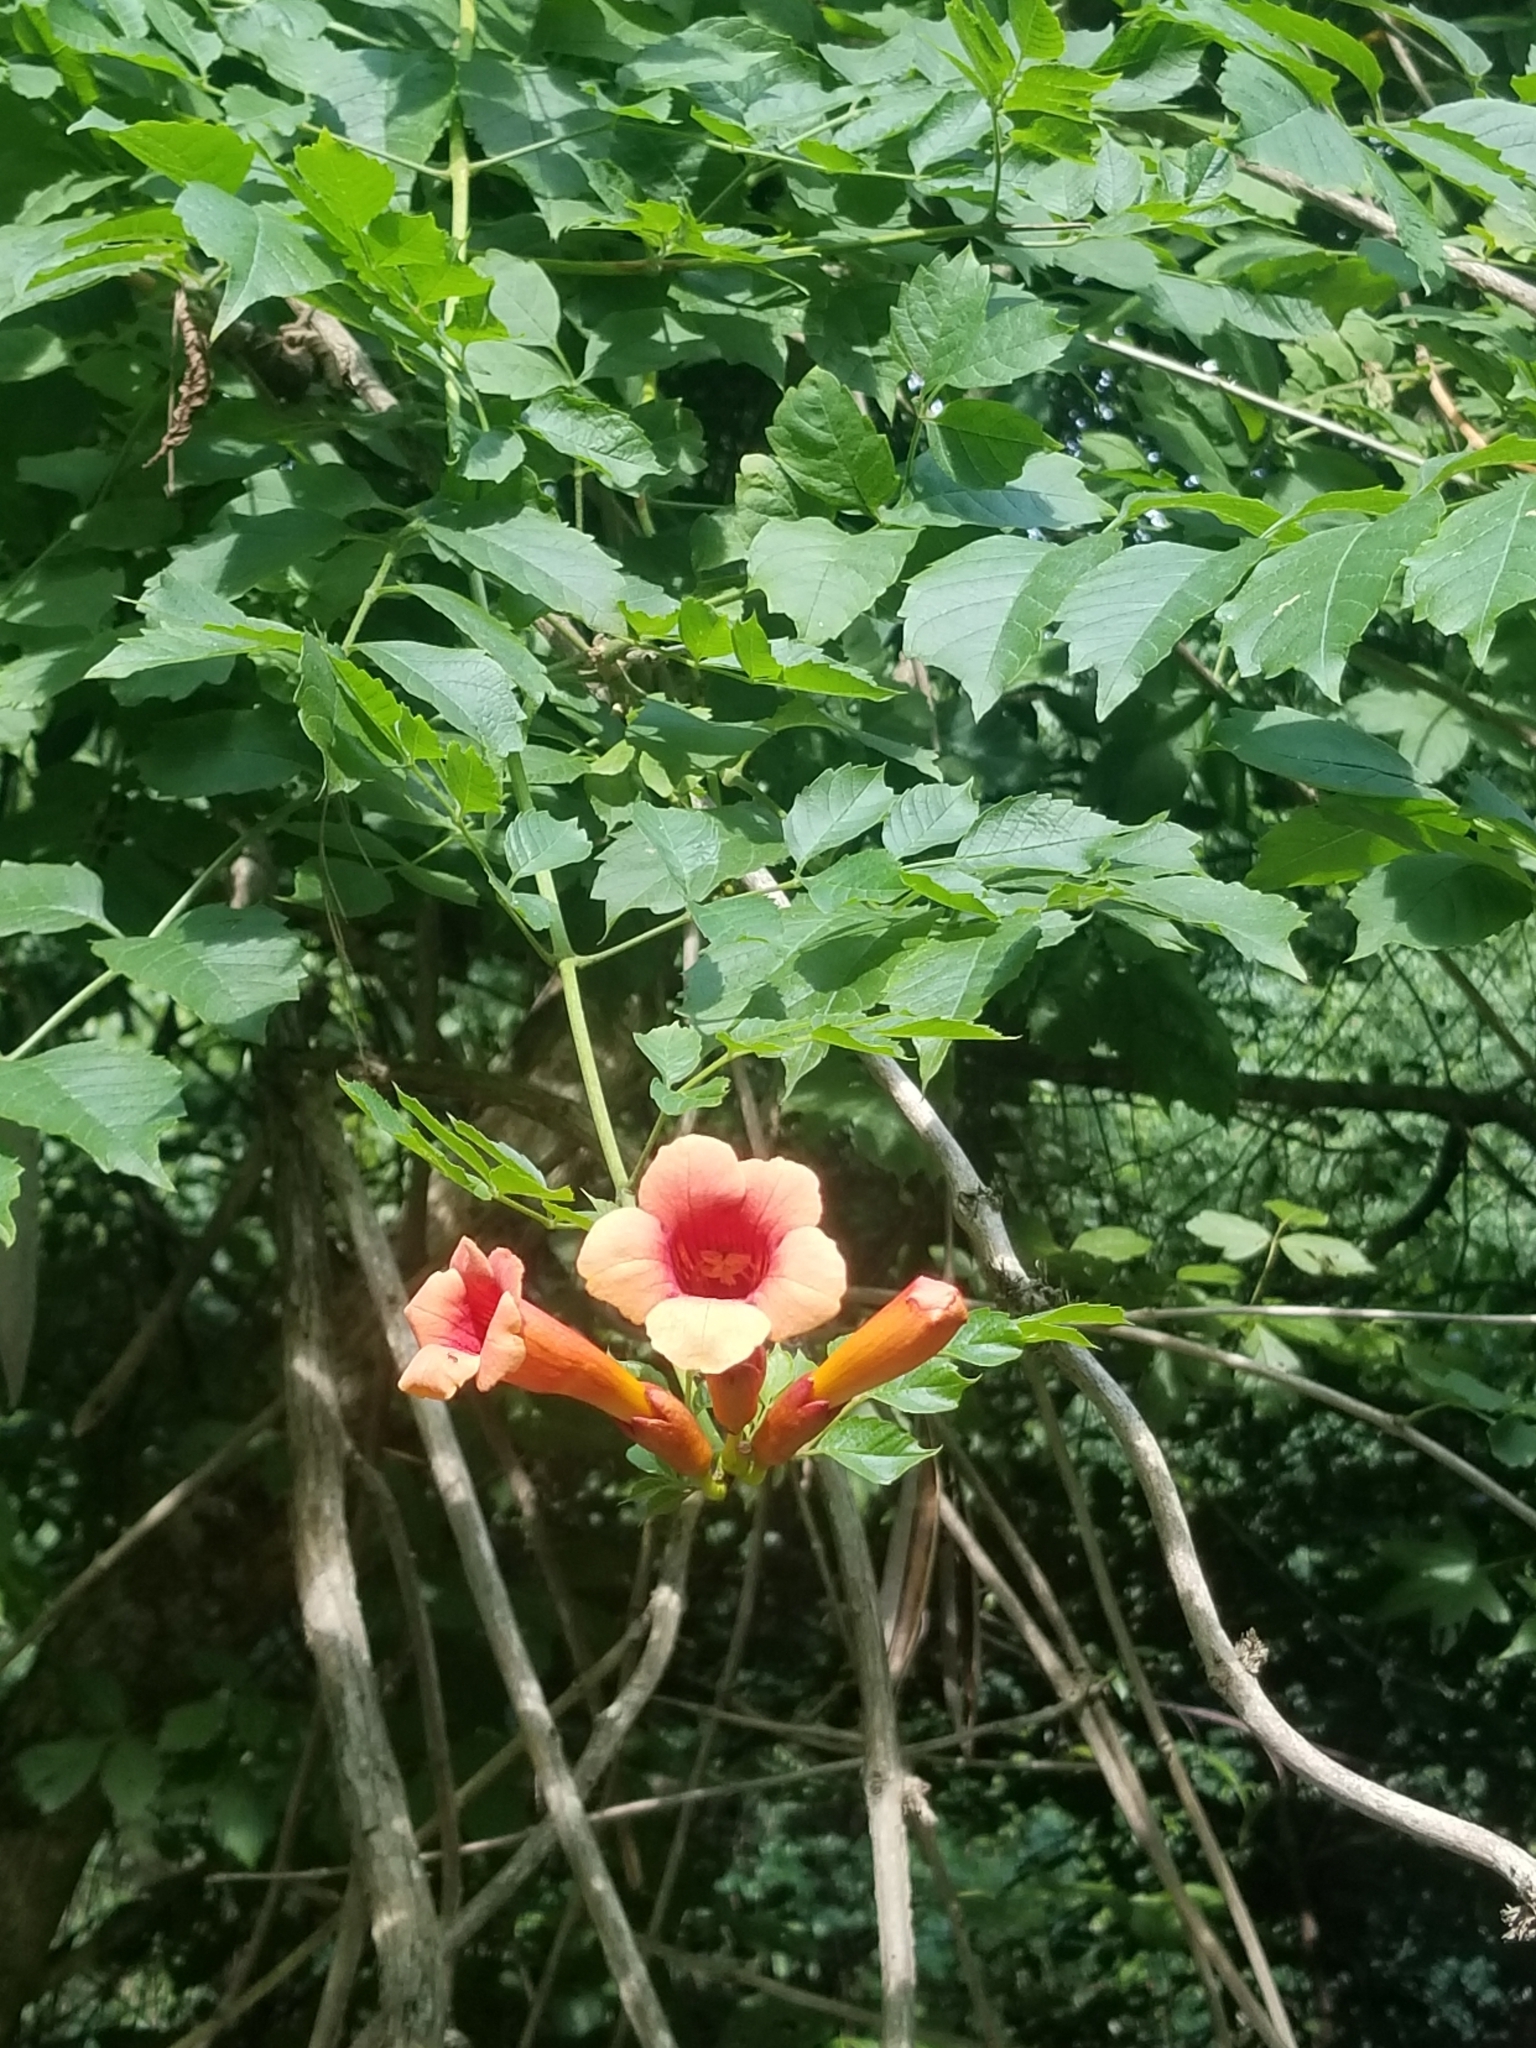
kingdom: Plantae
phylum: Tracheophyta
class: Magnoliopsida
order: Lamiales
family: Bignoniaceae
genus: Campsis
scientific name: Campsis radicans
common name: Trumpet-creeper
